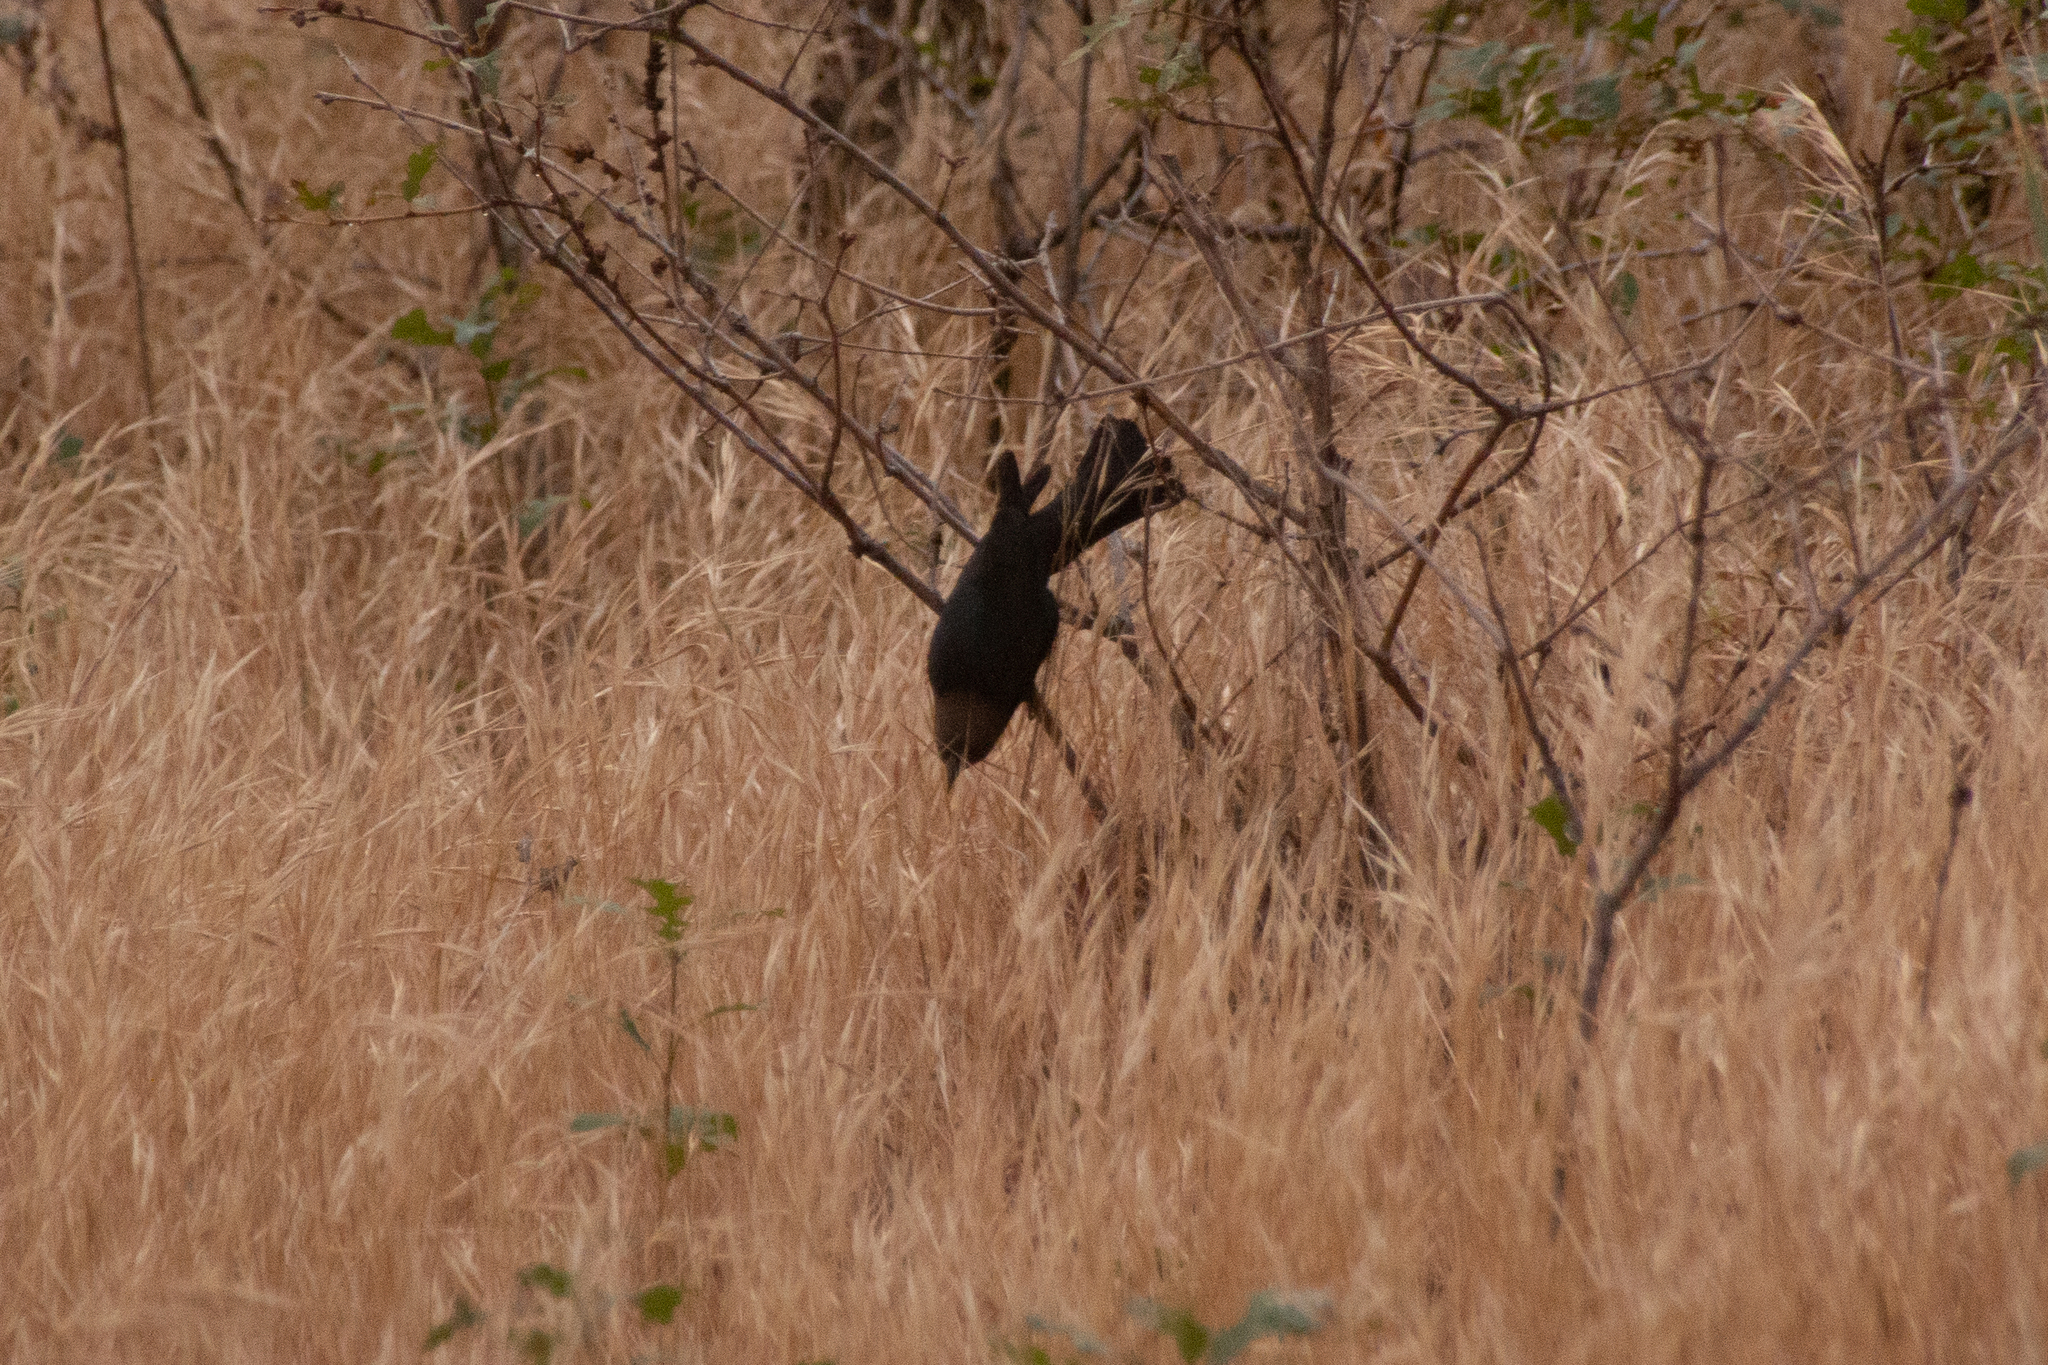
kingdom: Animalia
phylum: Chordata
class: Aves
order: Passeriformes
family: Icteridae
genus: Molothrus
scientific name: Molothrus ater
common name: Brown-headed cowbird
